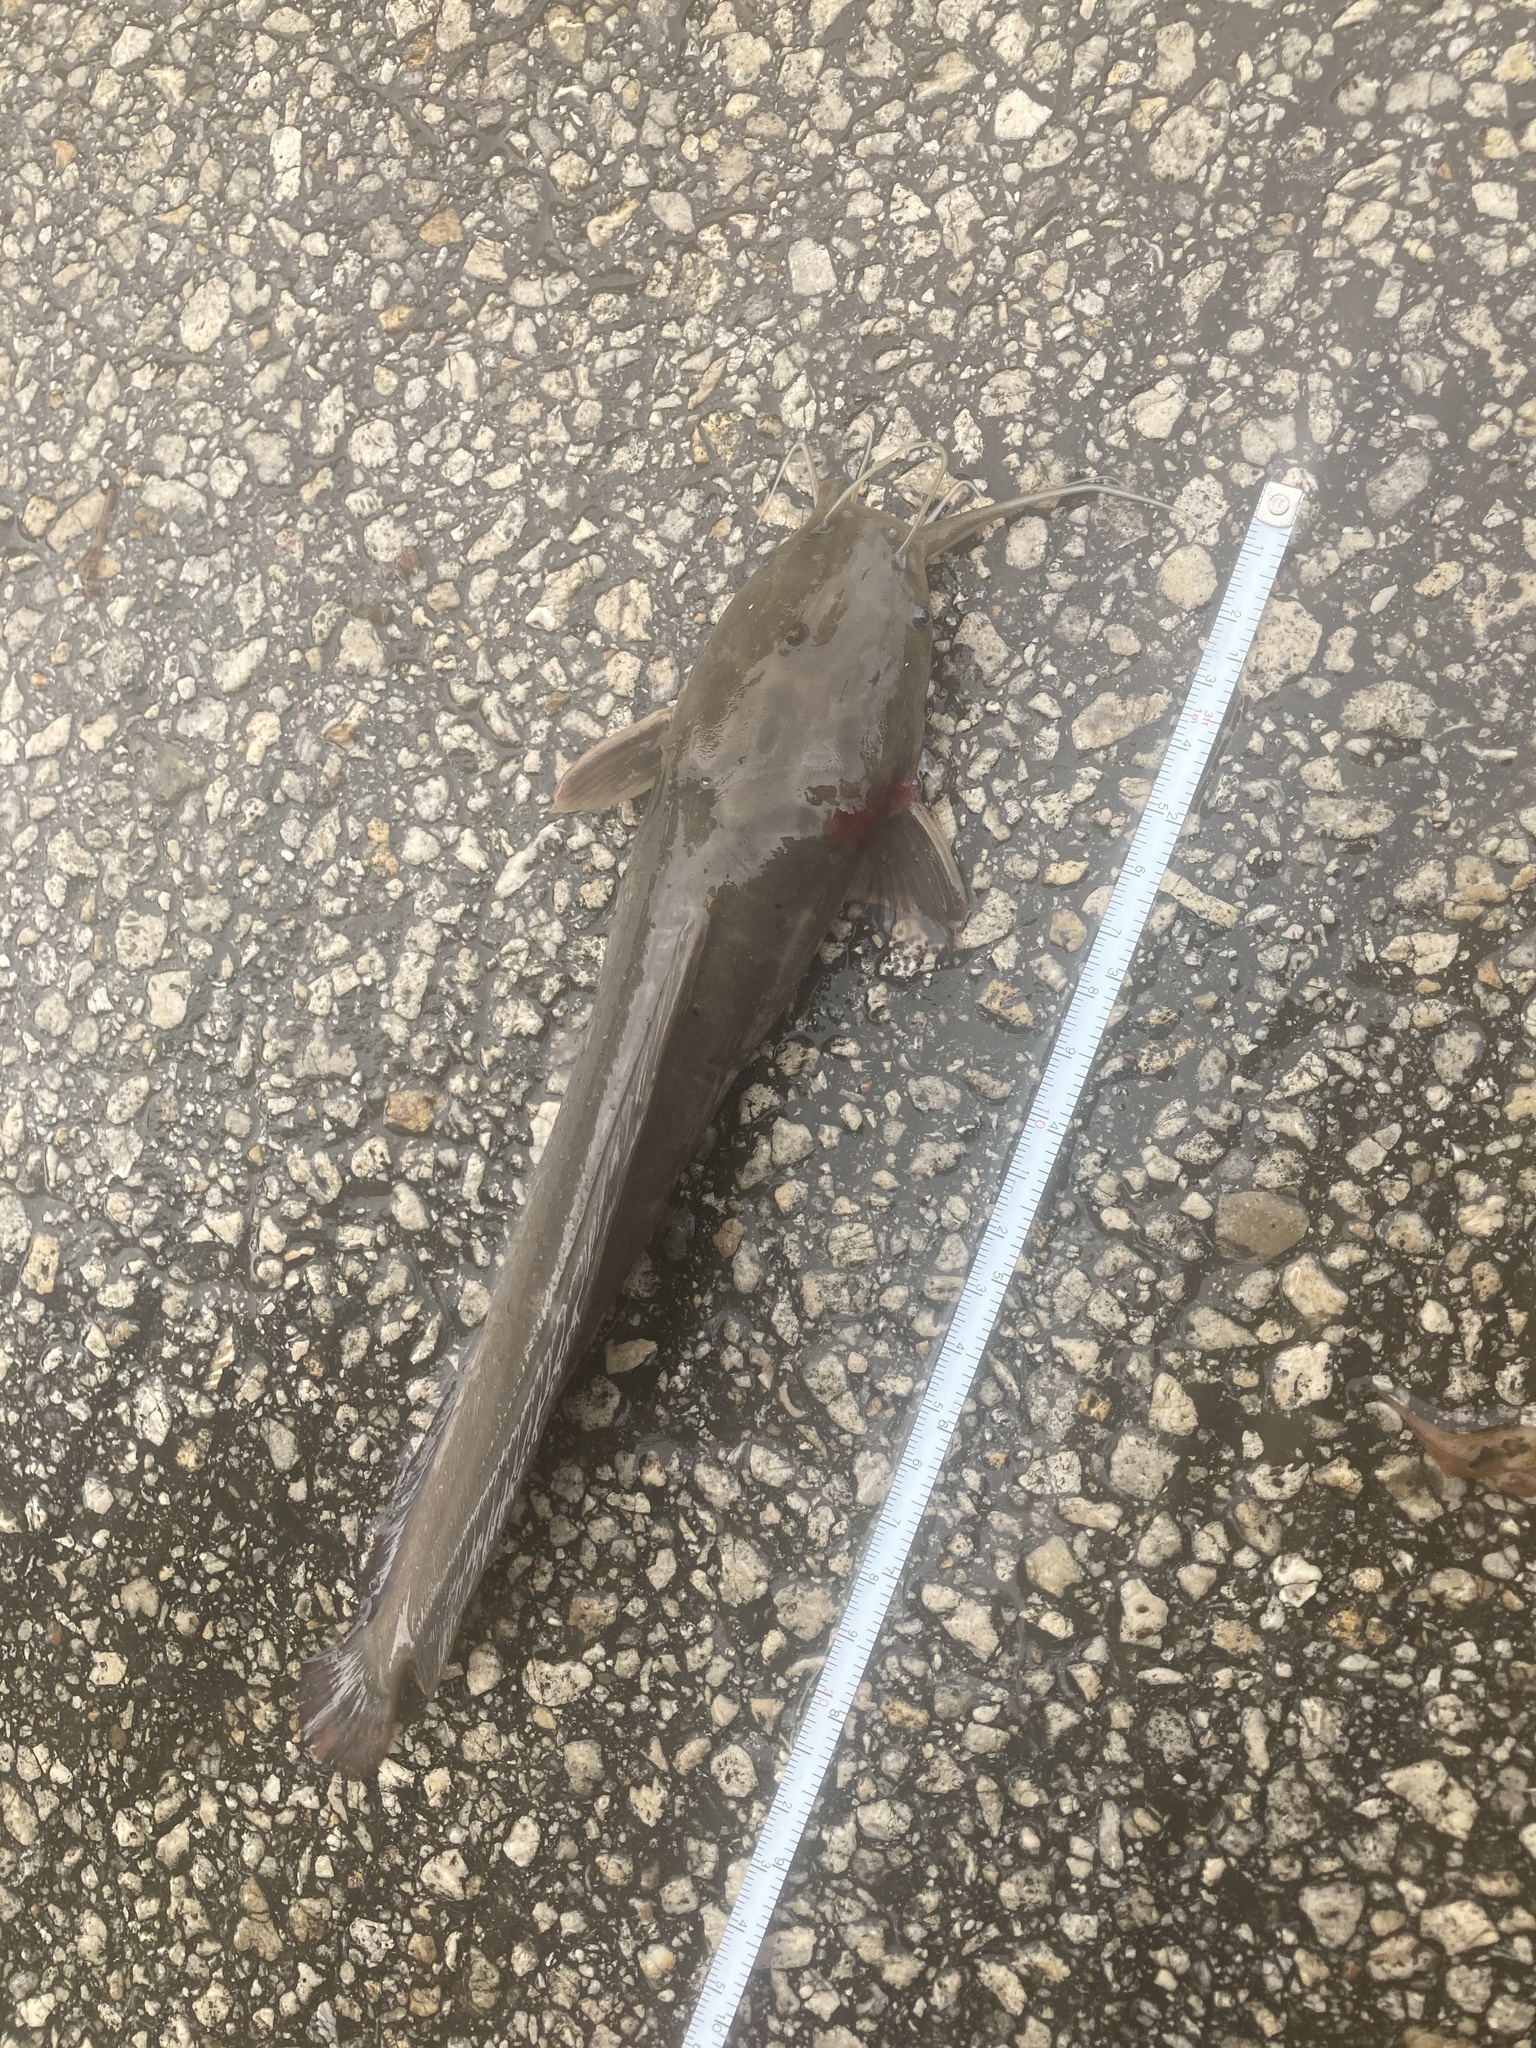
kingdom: Animalia
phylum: Chordata
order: Siluriformes
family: Clariidae
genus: Clarias
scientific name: Clarias batrachus
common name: Walking catfish
